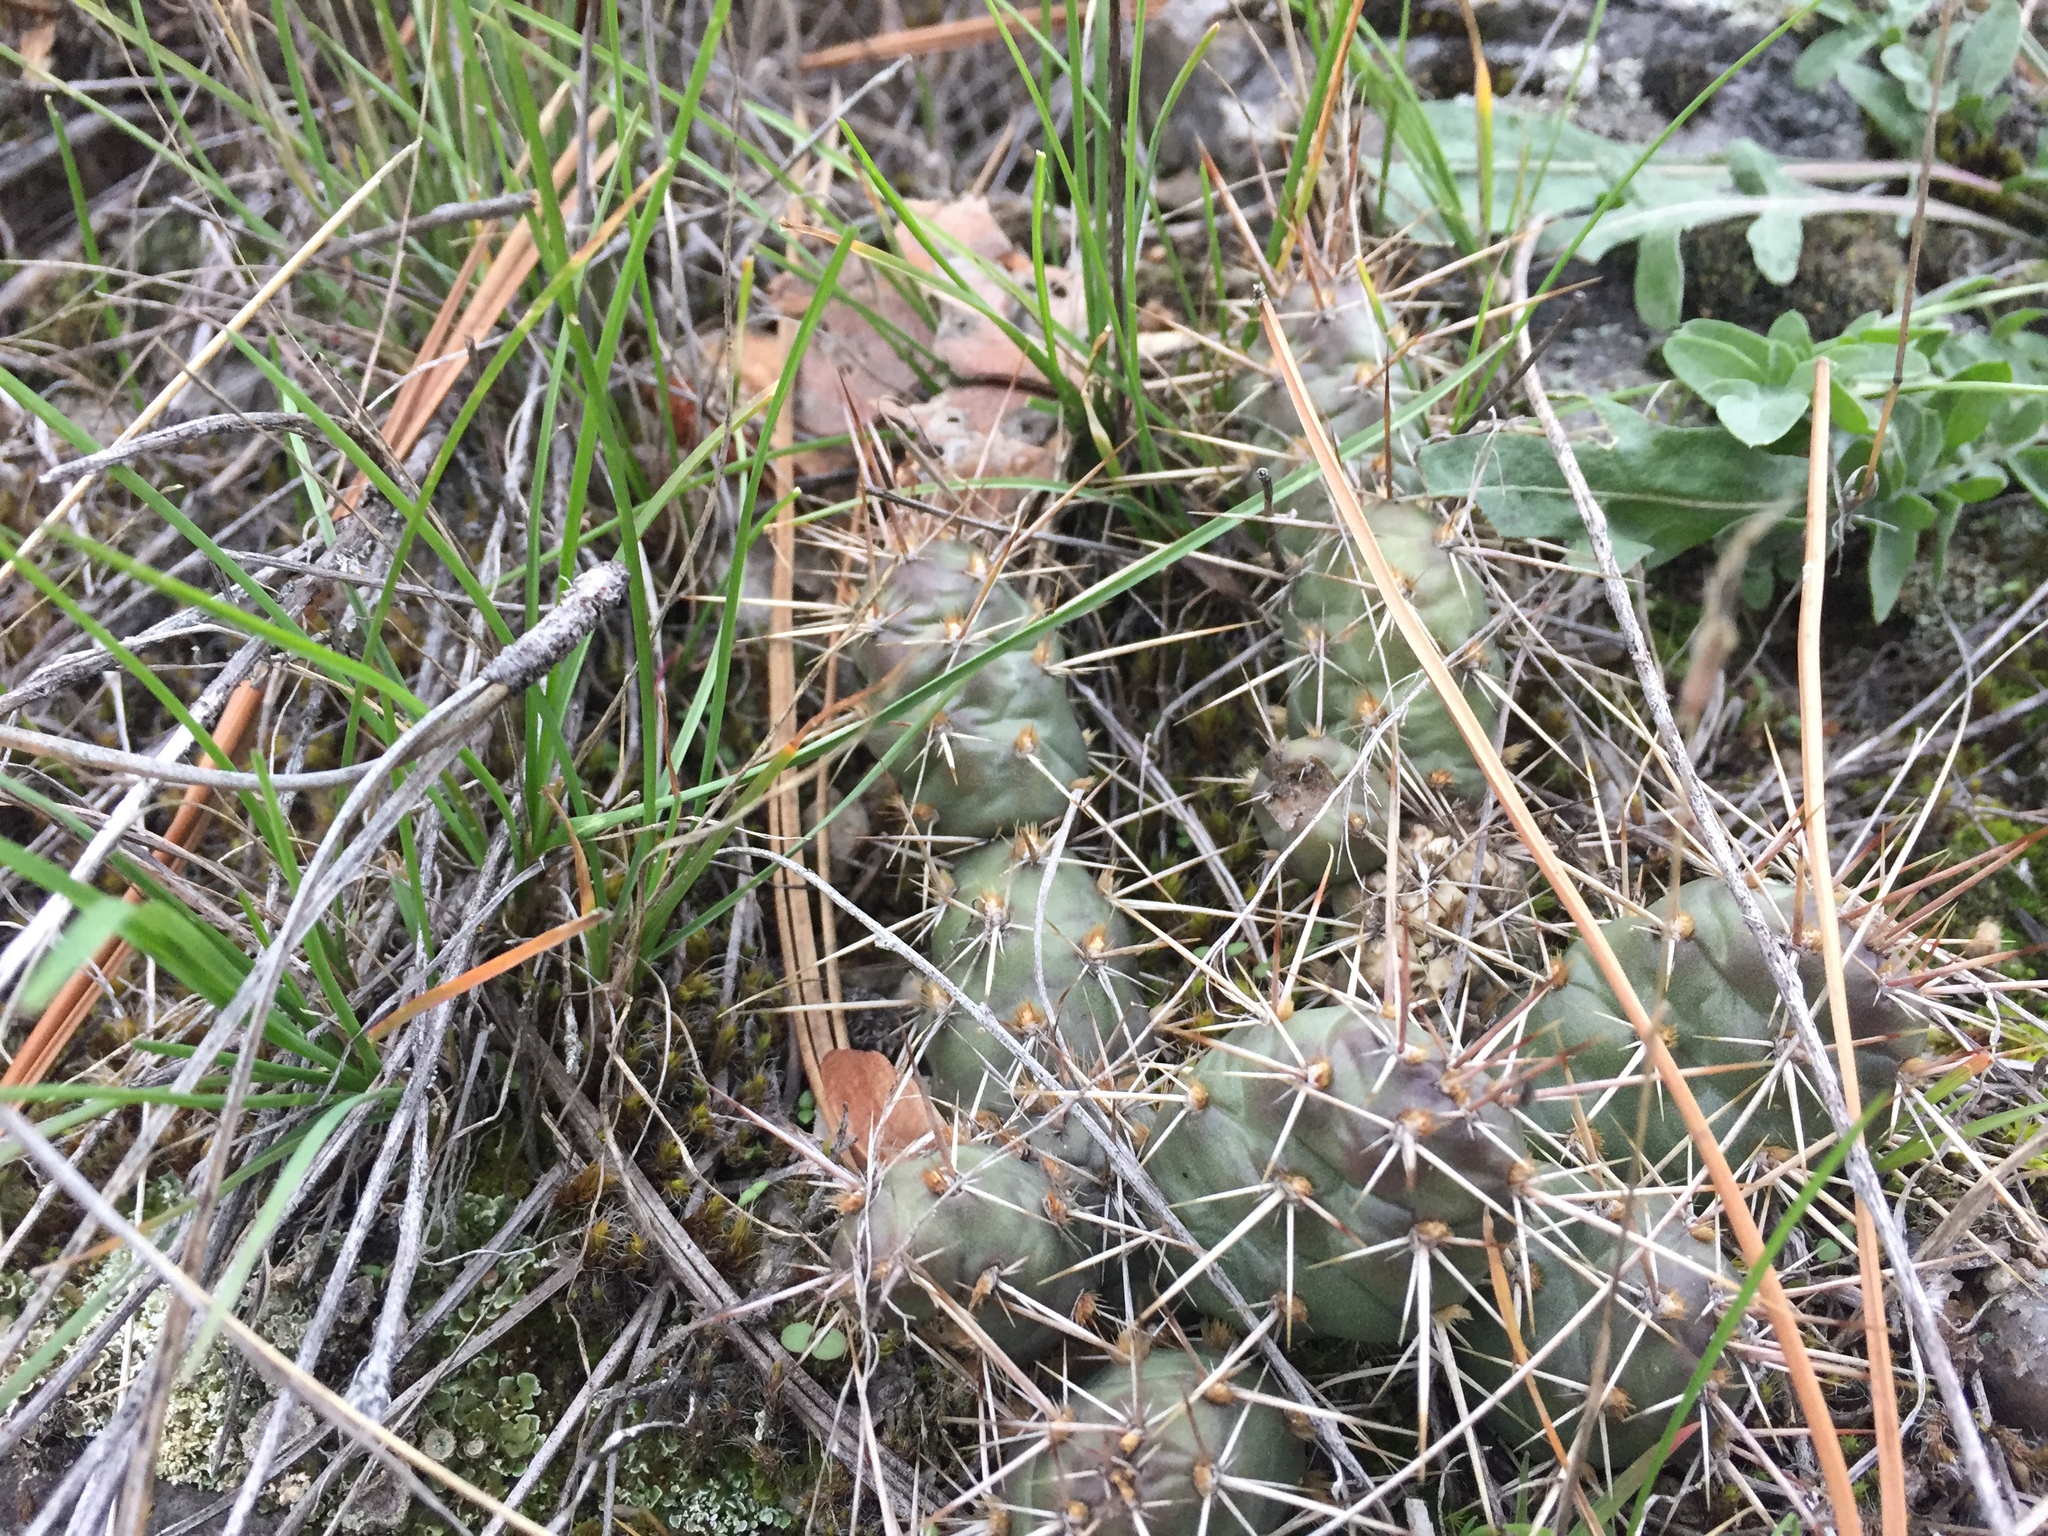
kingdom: Plantae
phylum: Tracheophyta
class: Magnoliopsida
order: Caryophyllales
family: Cactaceae
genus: Opuntia
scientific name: Opuntia fragilis
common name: Brittle cactus
